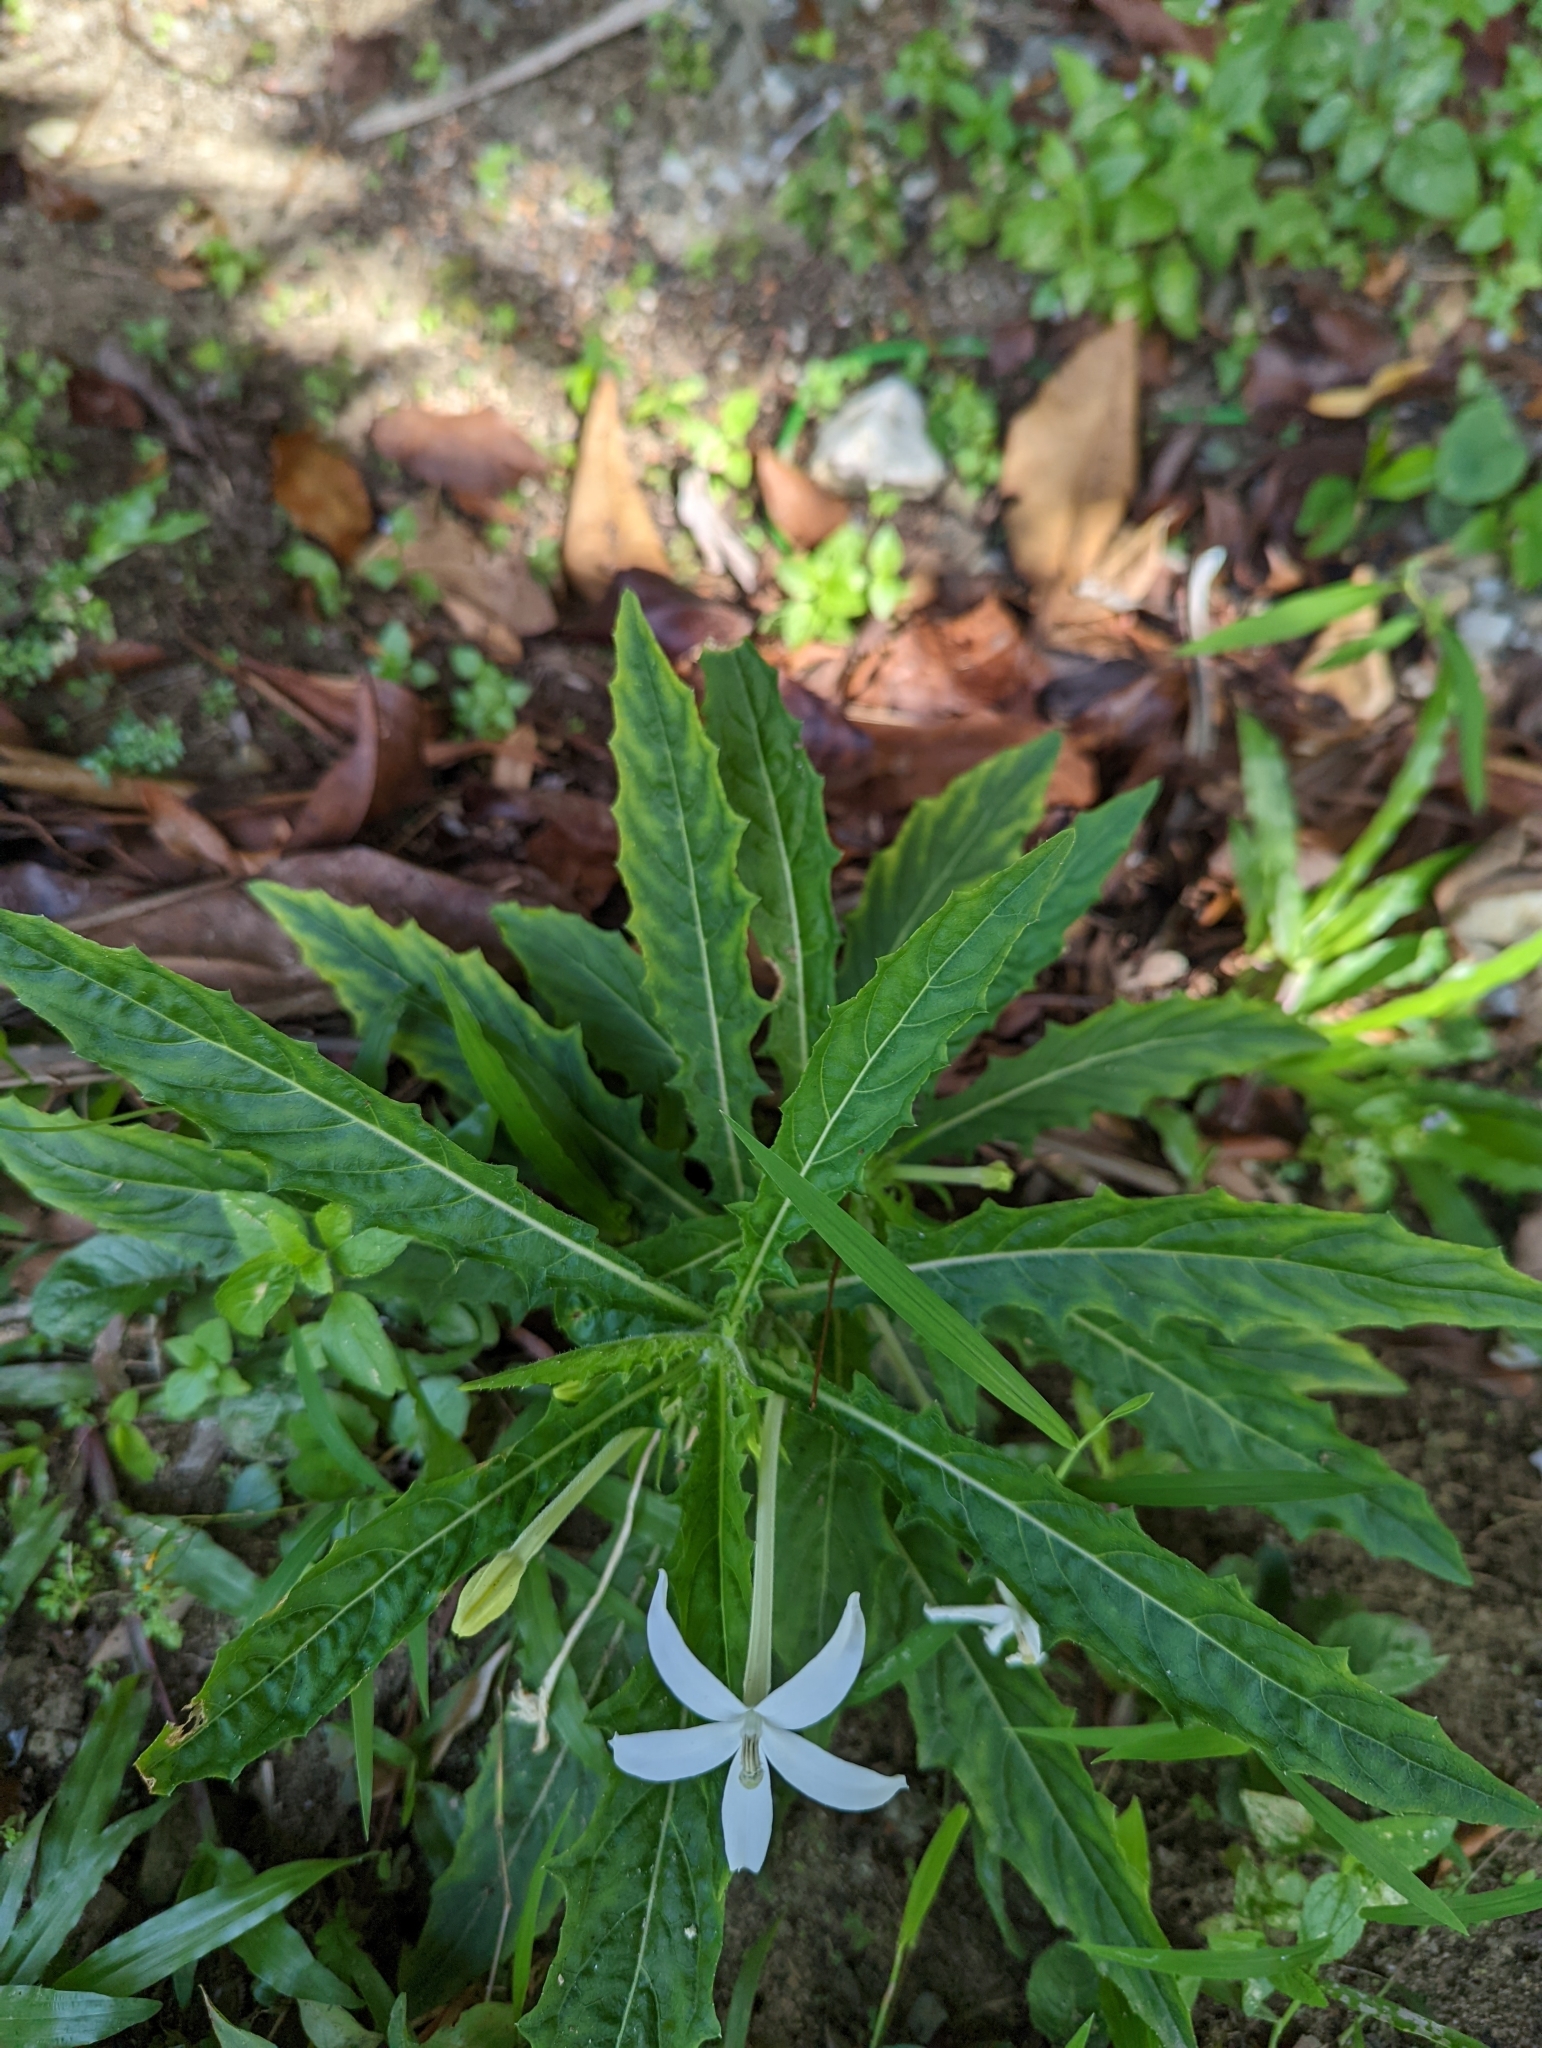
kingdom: Plantae
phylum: Tracheophyta
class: Magnoliopsida
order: Asterales
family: Campanulaceae
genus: Hippobroma
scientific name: Hippobroma longiflora
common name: Madamfate
